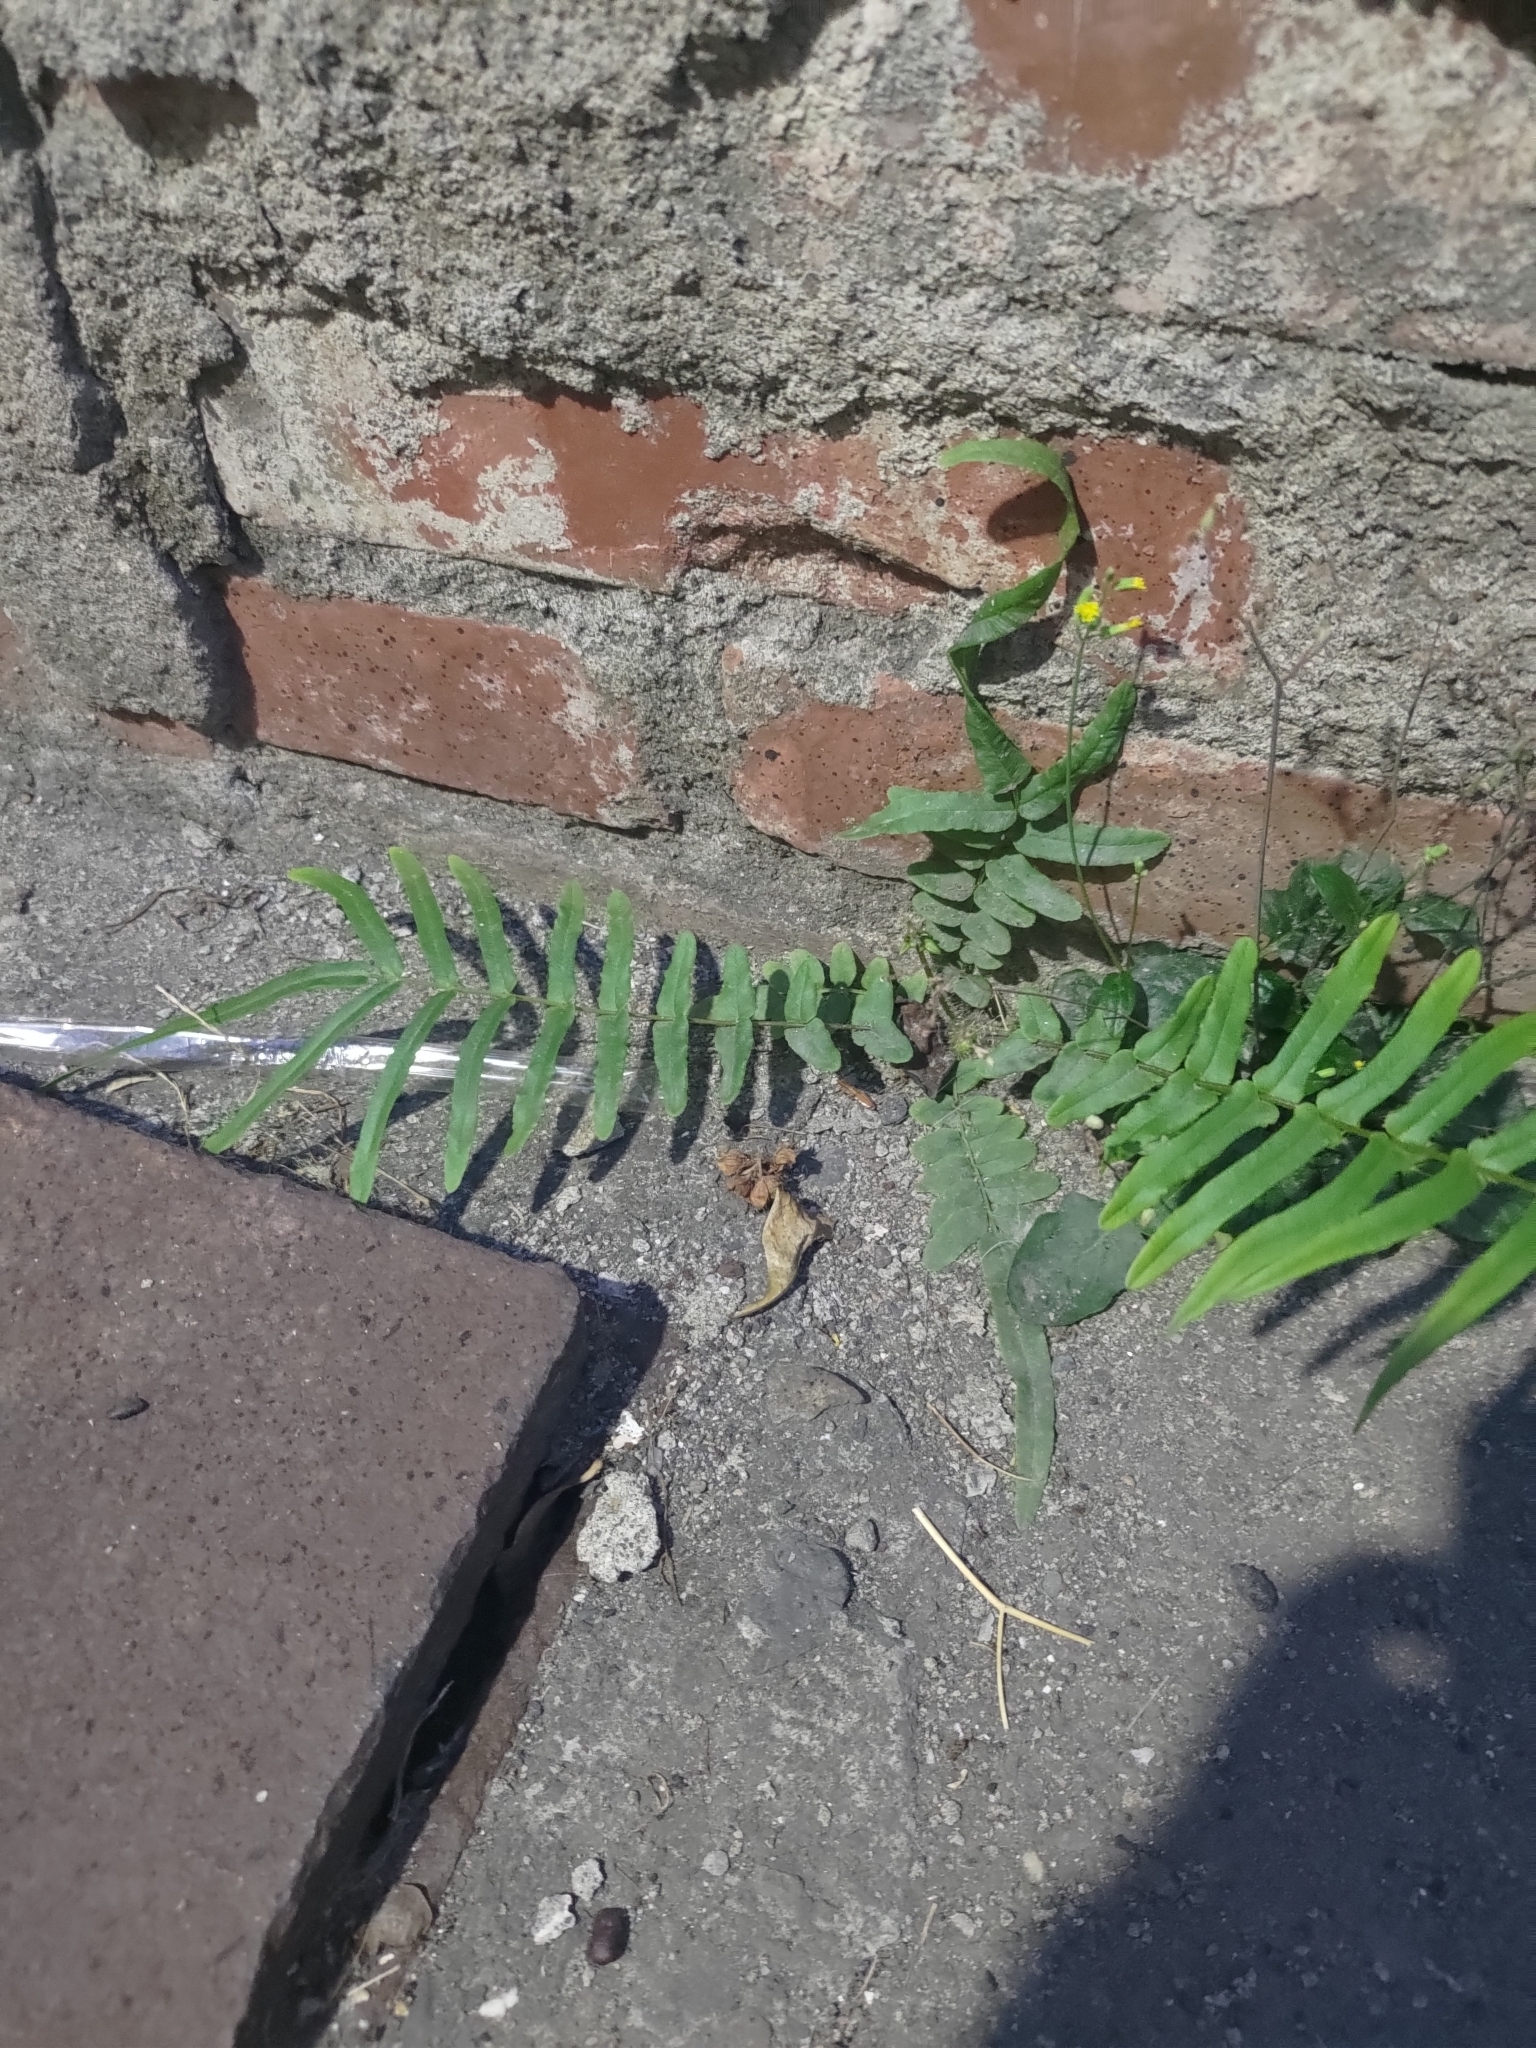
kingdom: Plantae
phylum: Tracheophyta
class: Polypodiopsida
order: Polypodiales
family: Pteridaceae
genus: Pteris
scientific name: Pteris vittata
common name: Ladder brake
